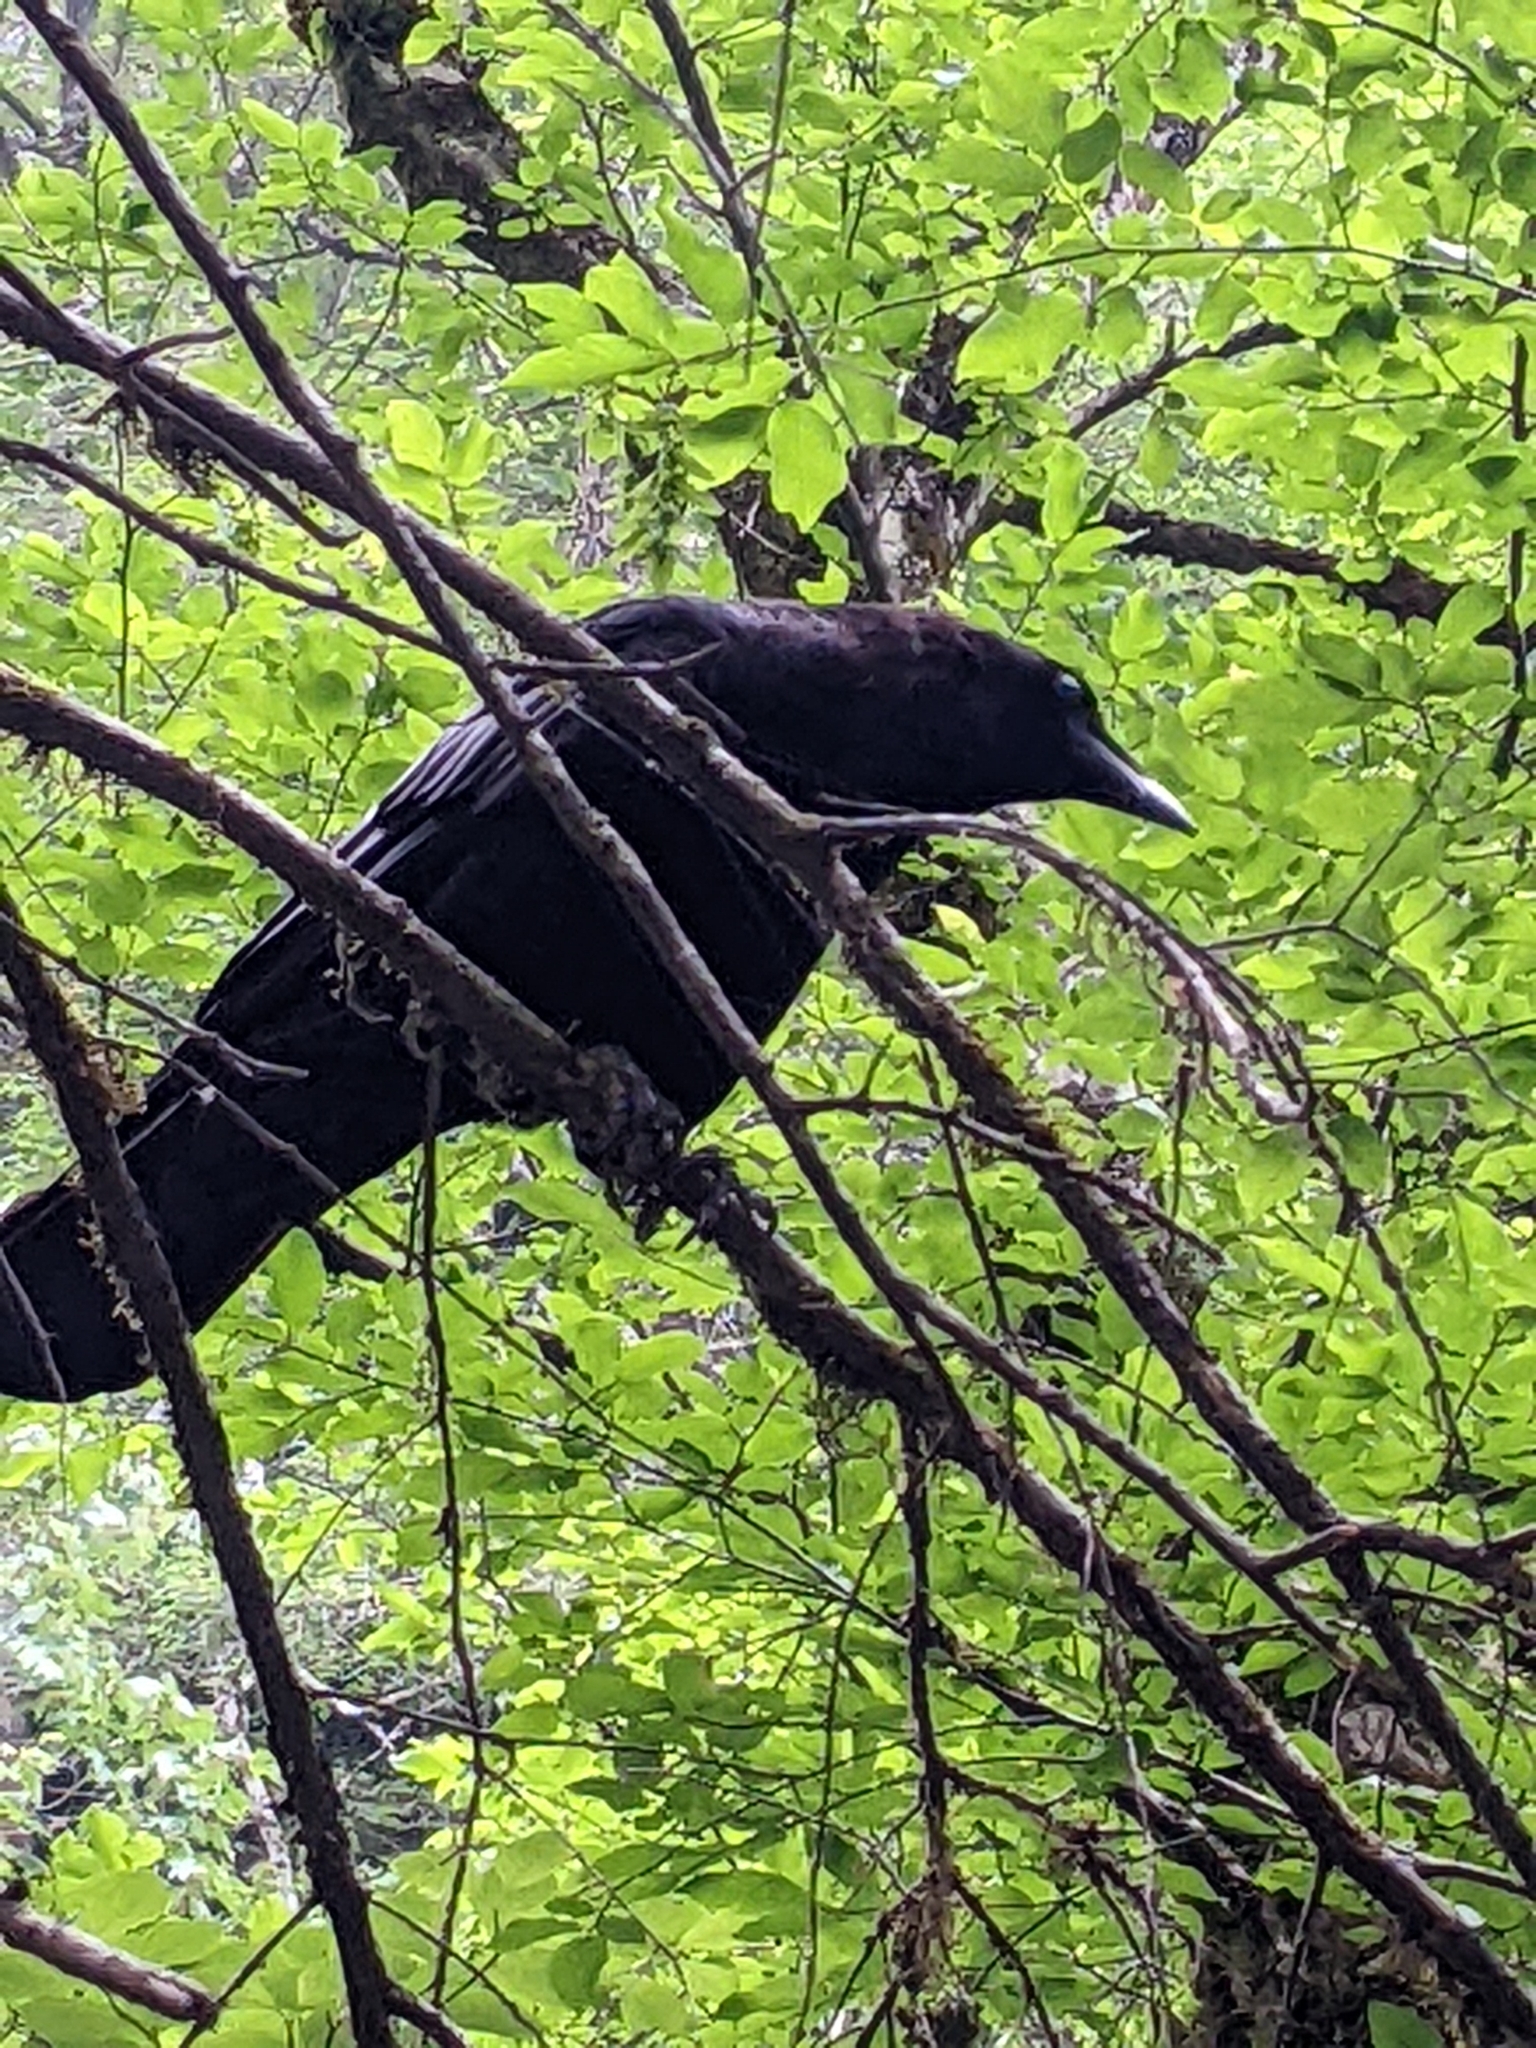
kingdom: Animalia
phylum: Chordata
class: Aves
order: Passeriformes
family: Corvidae
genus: Corvus
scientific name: Corvus brachyrhynchos
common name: American crow
